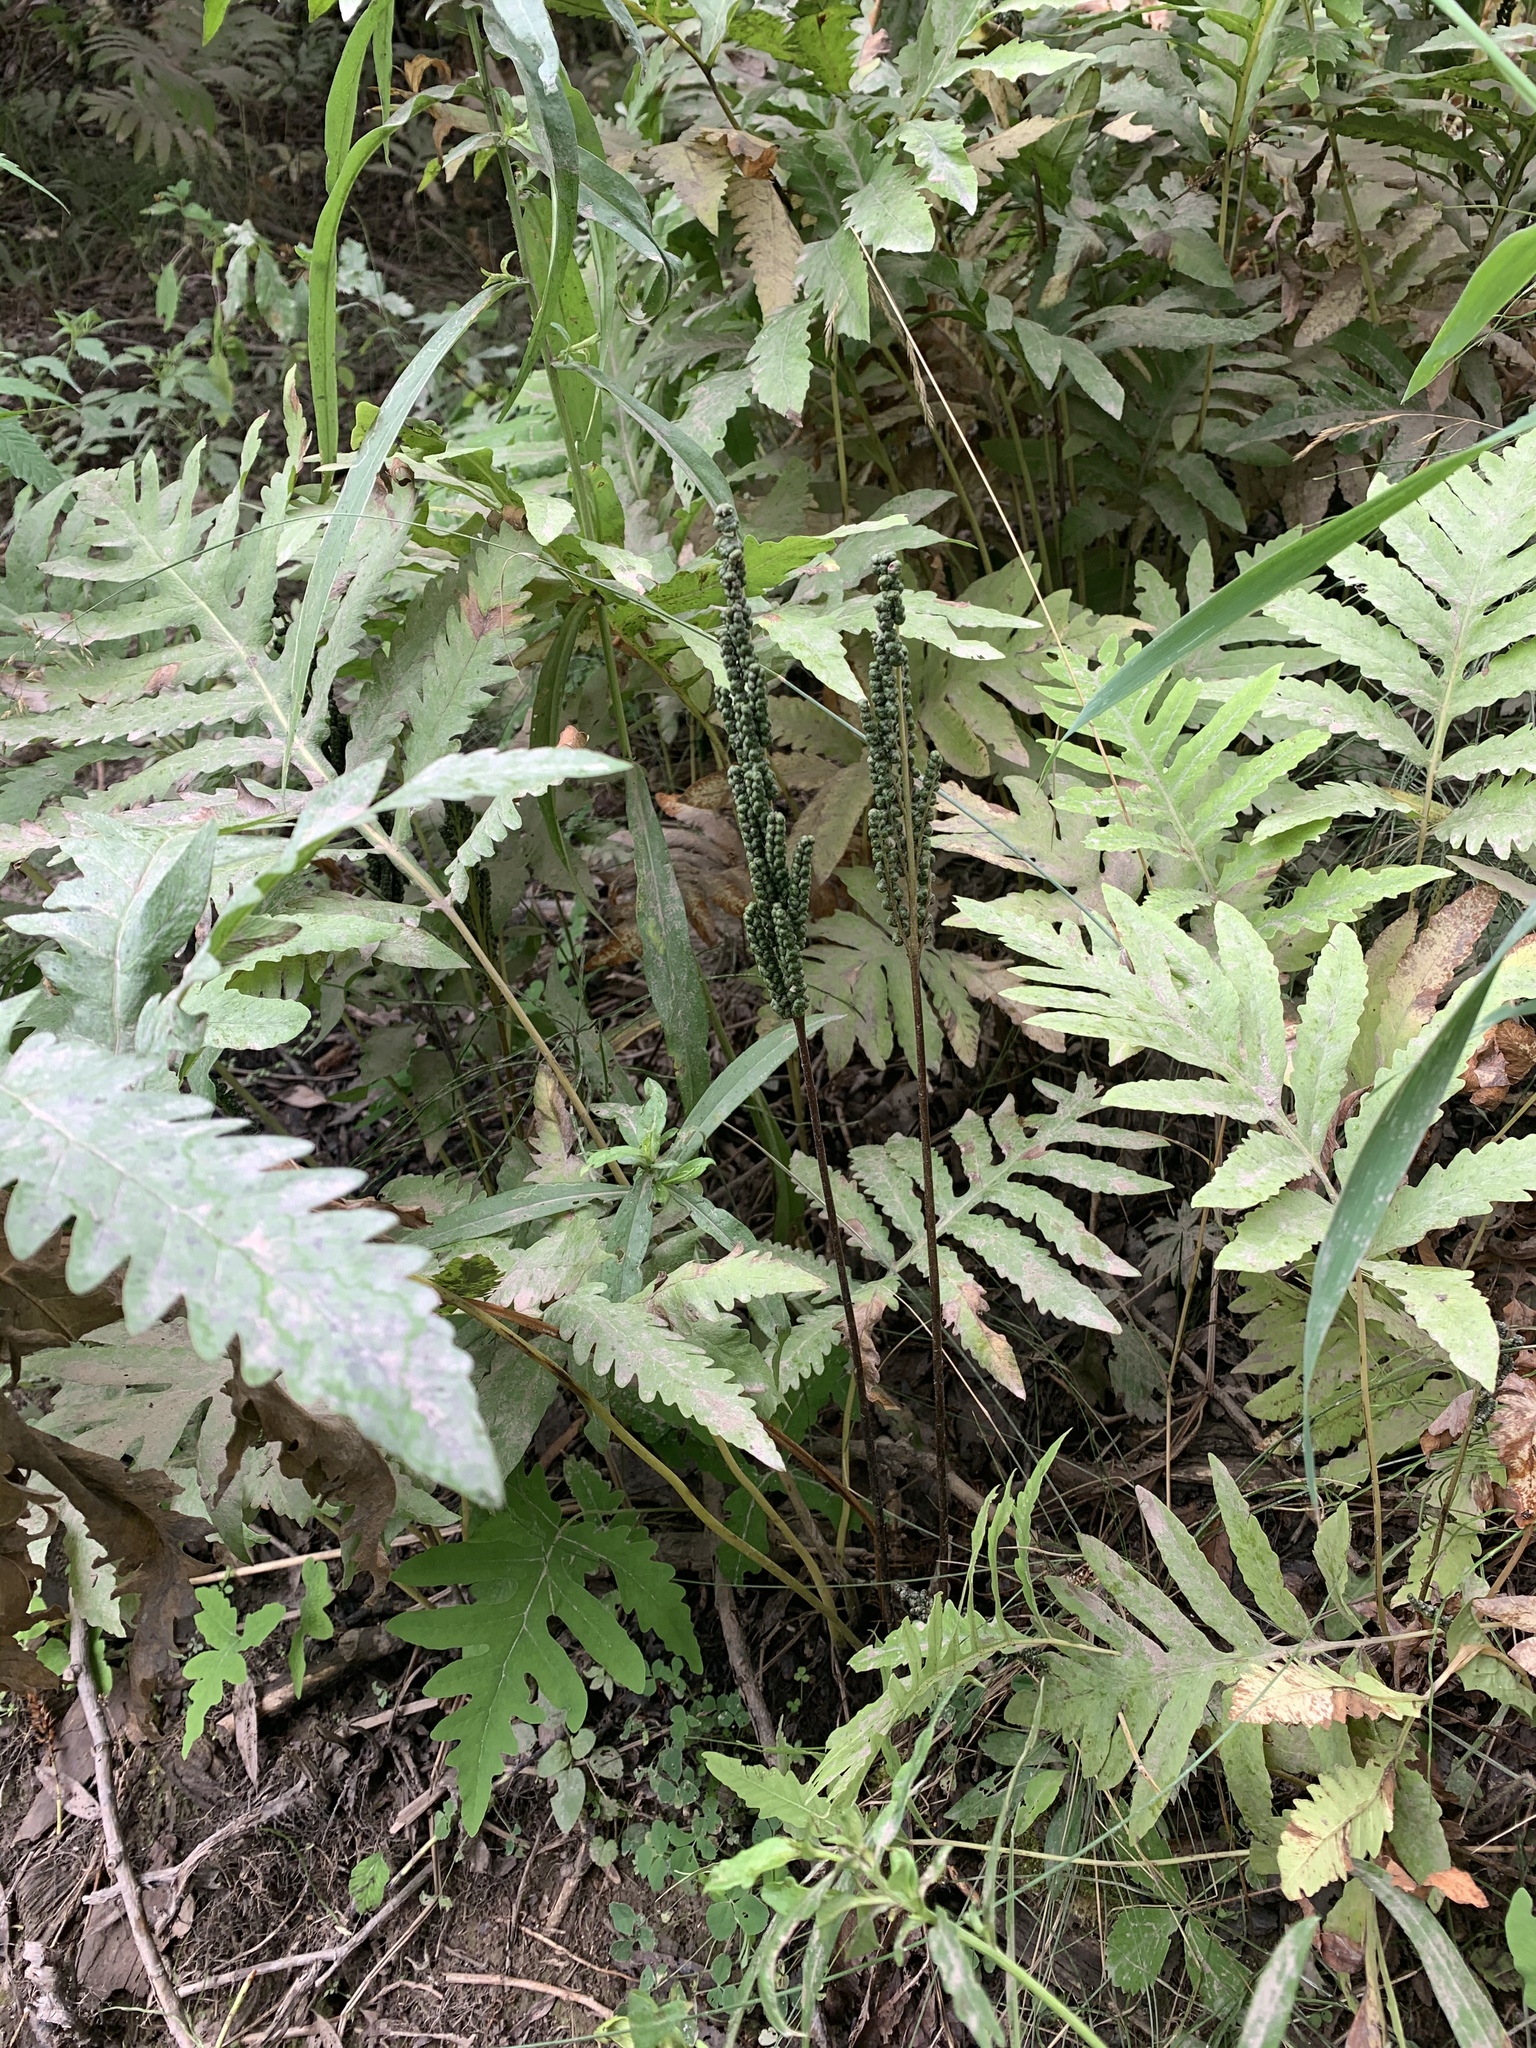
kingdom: Plantae
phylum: Tracheophyta
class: Polypodiopsida
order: Polypodiales
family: Onocleaceae
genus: Onoclea
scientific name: Onoclea sensibilis
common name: Sensitive fern
